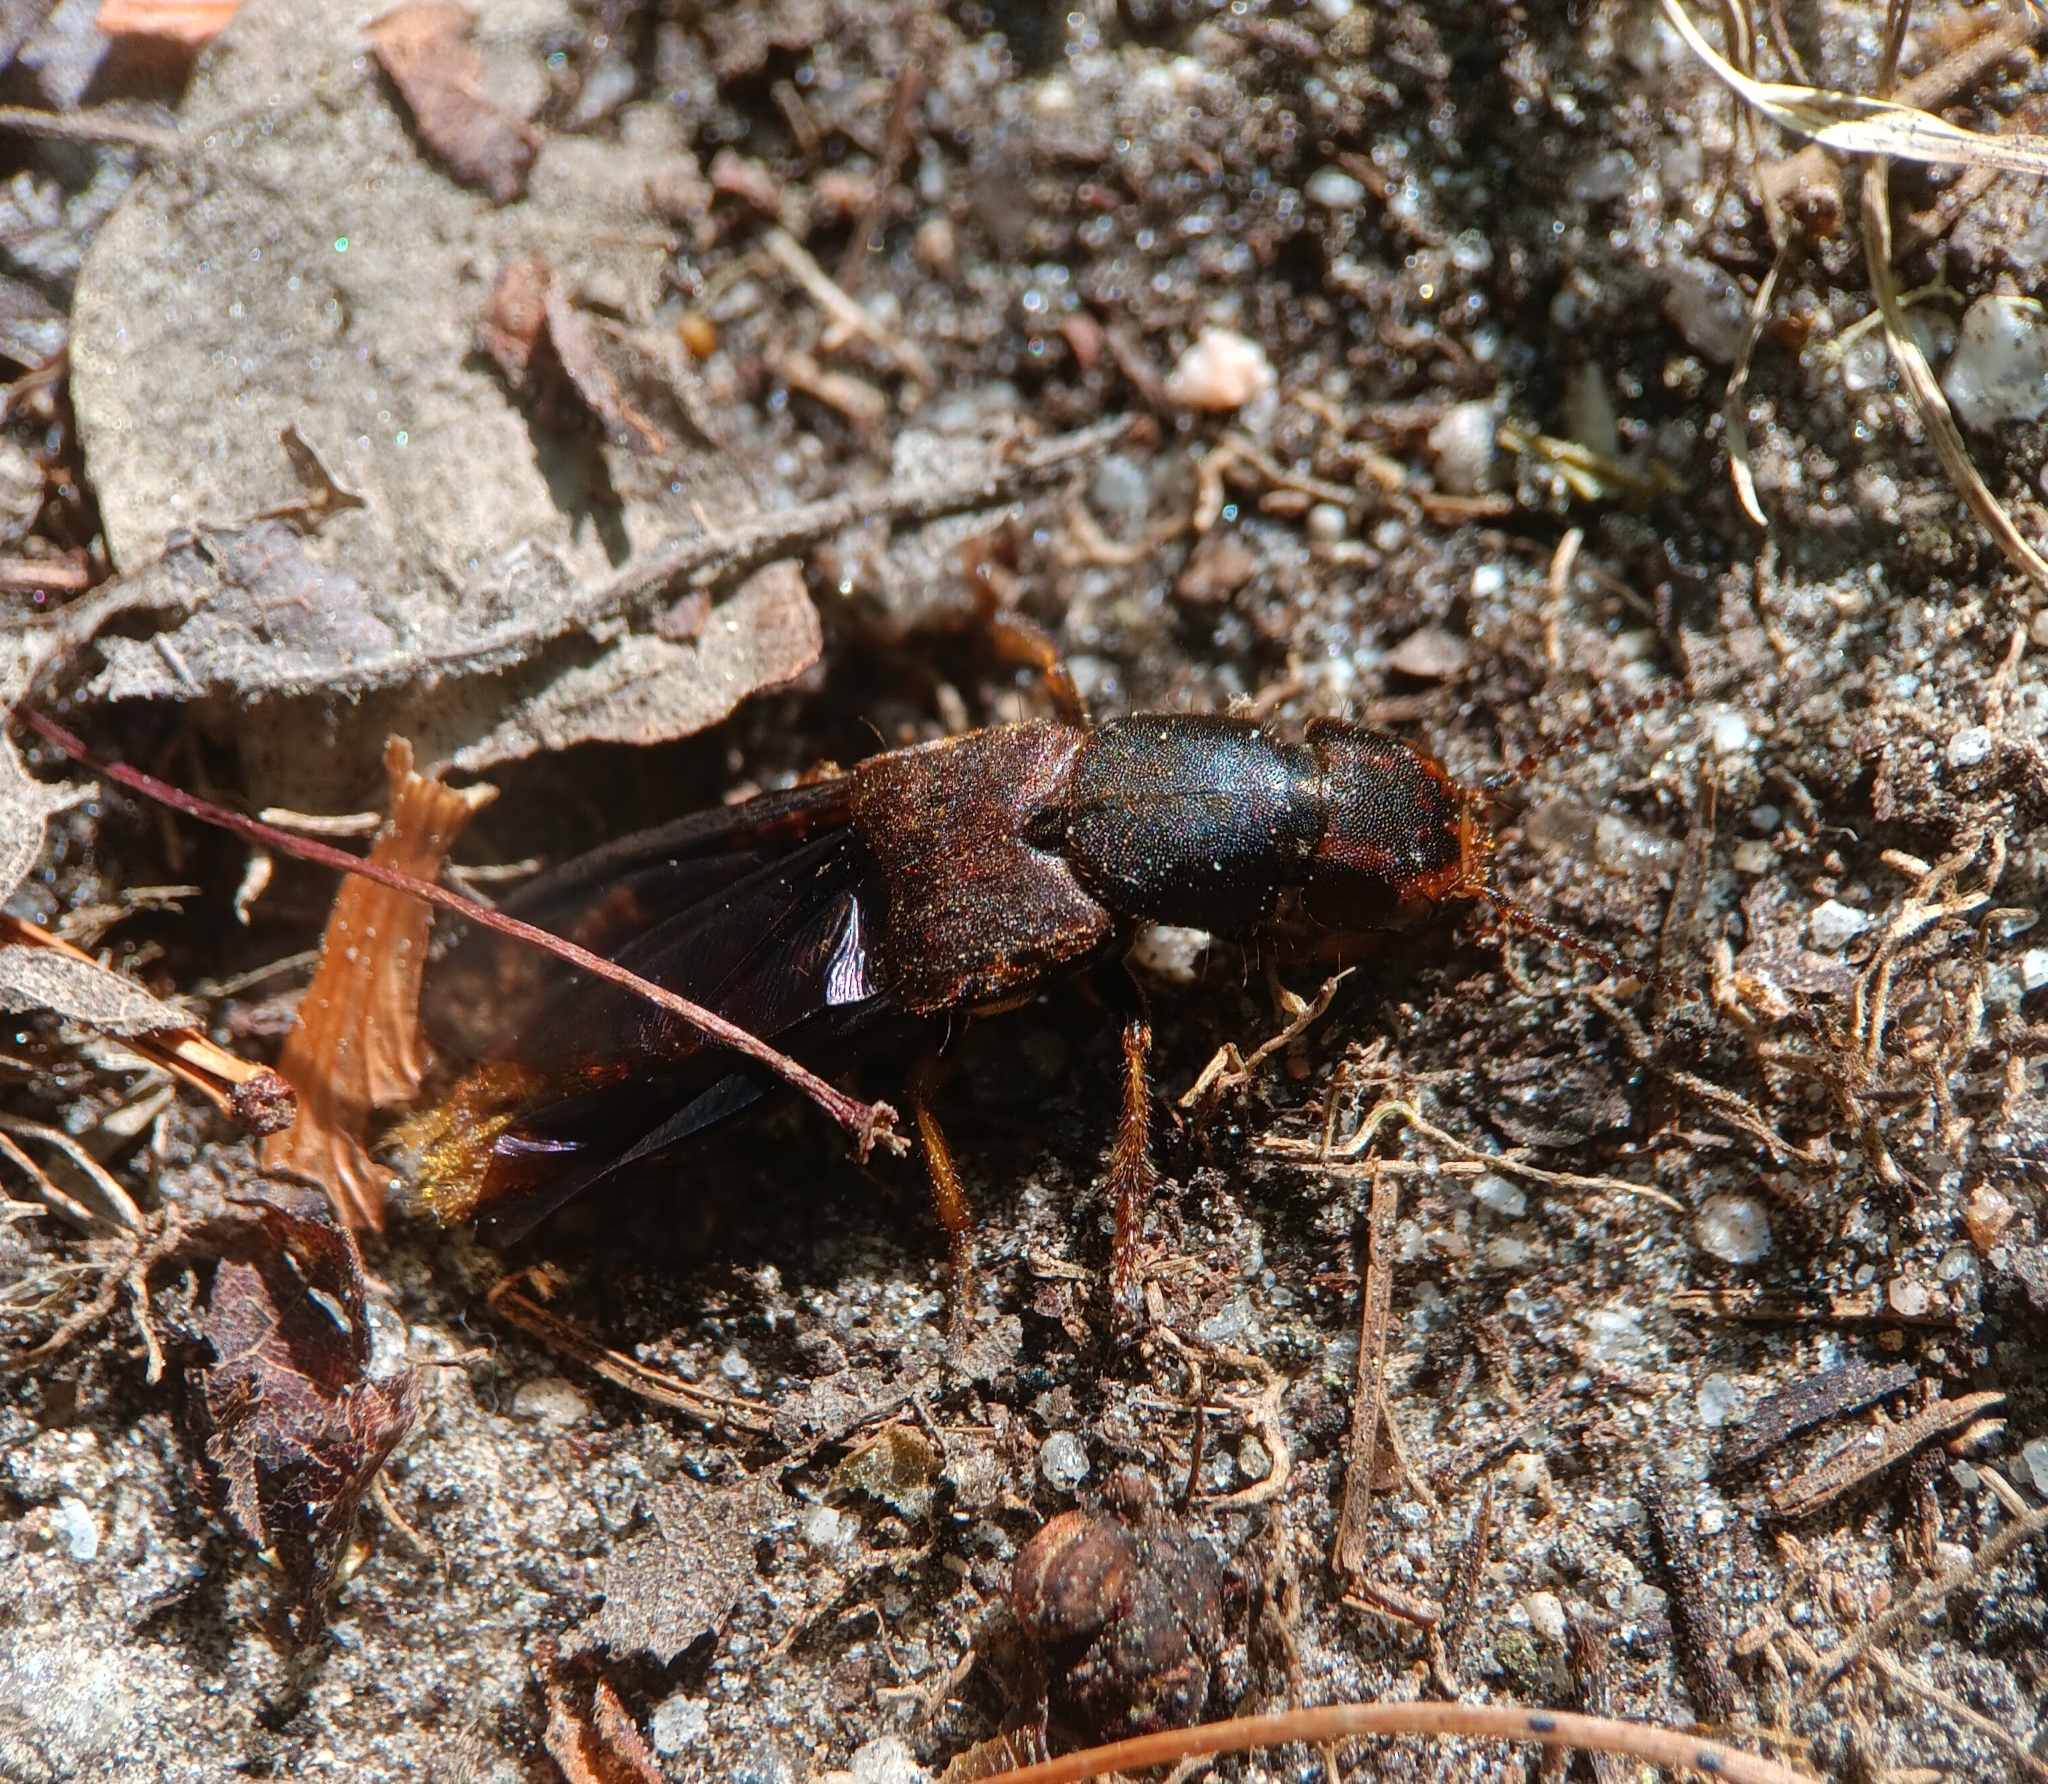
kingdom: Animalia
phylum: Arthropoda
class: Insecta
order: Coleoptera
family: Staphylinidae
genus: Platydracus
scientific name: Platydracus maculosus
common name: Brown rove beetle
